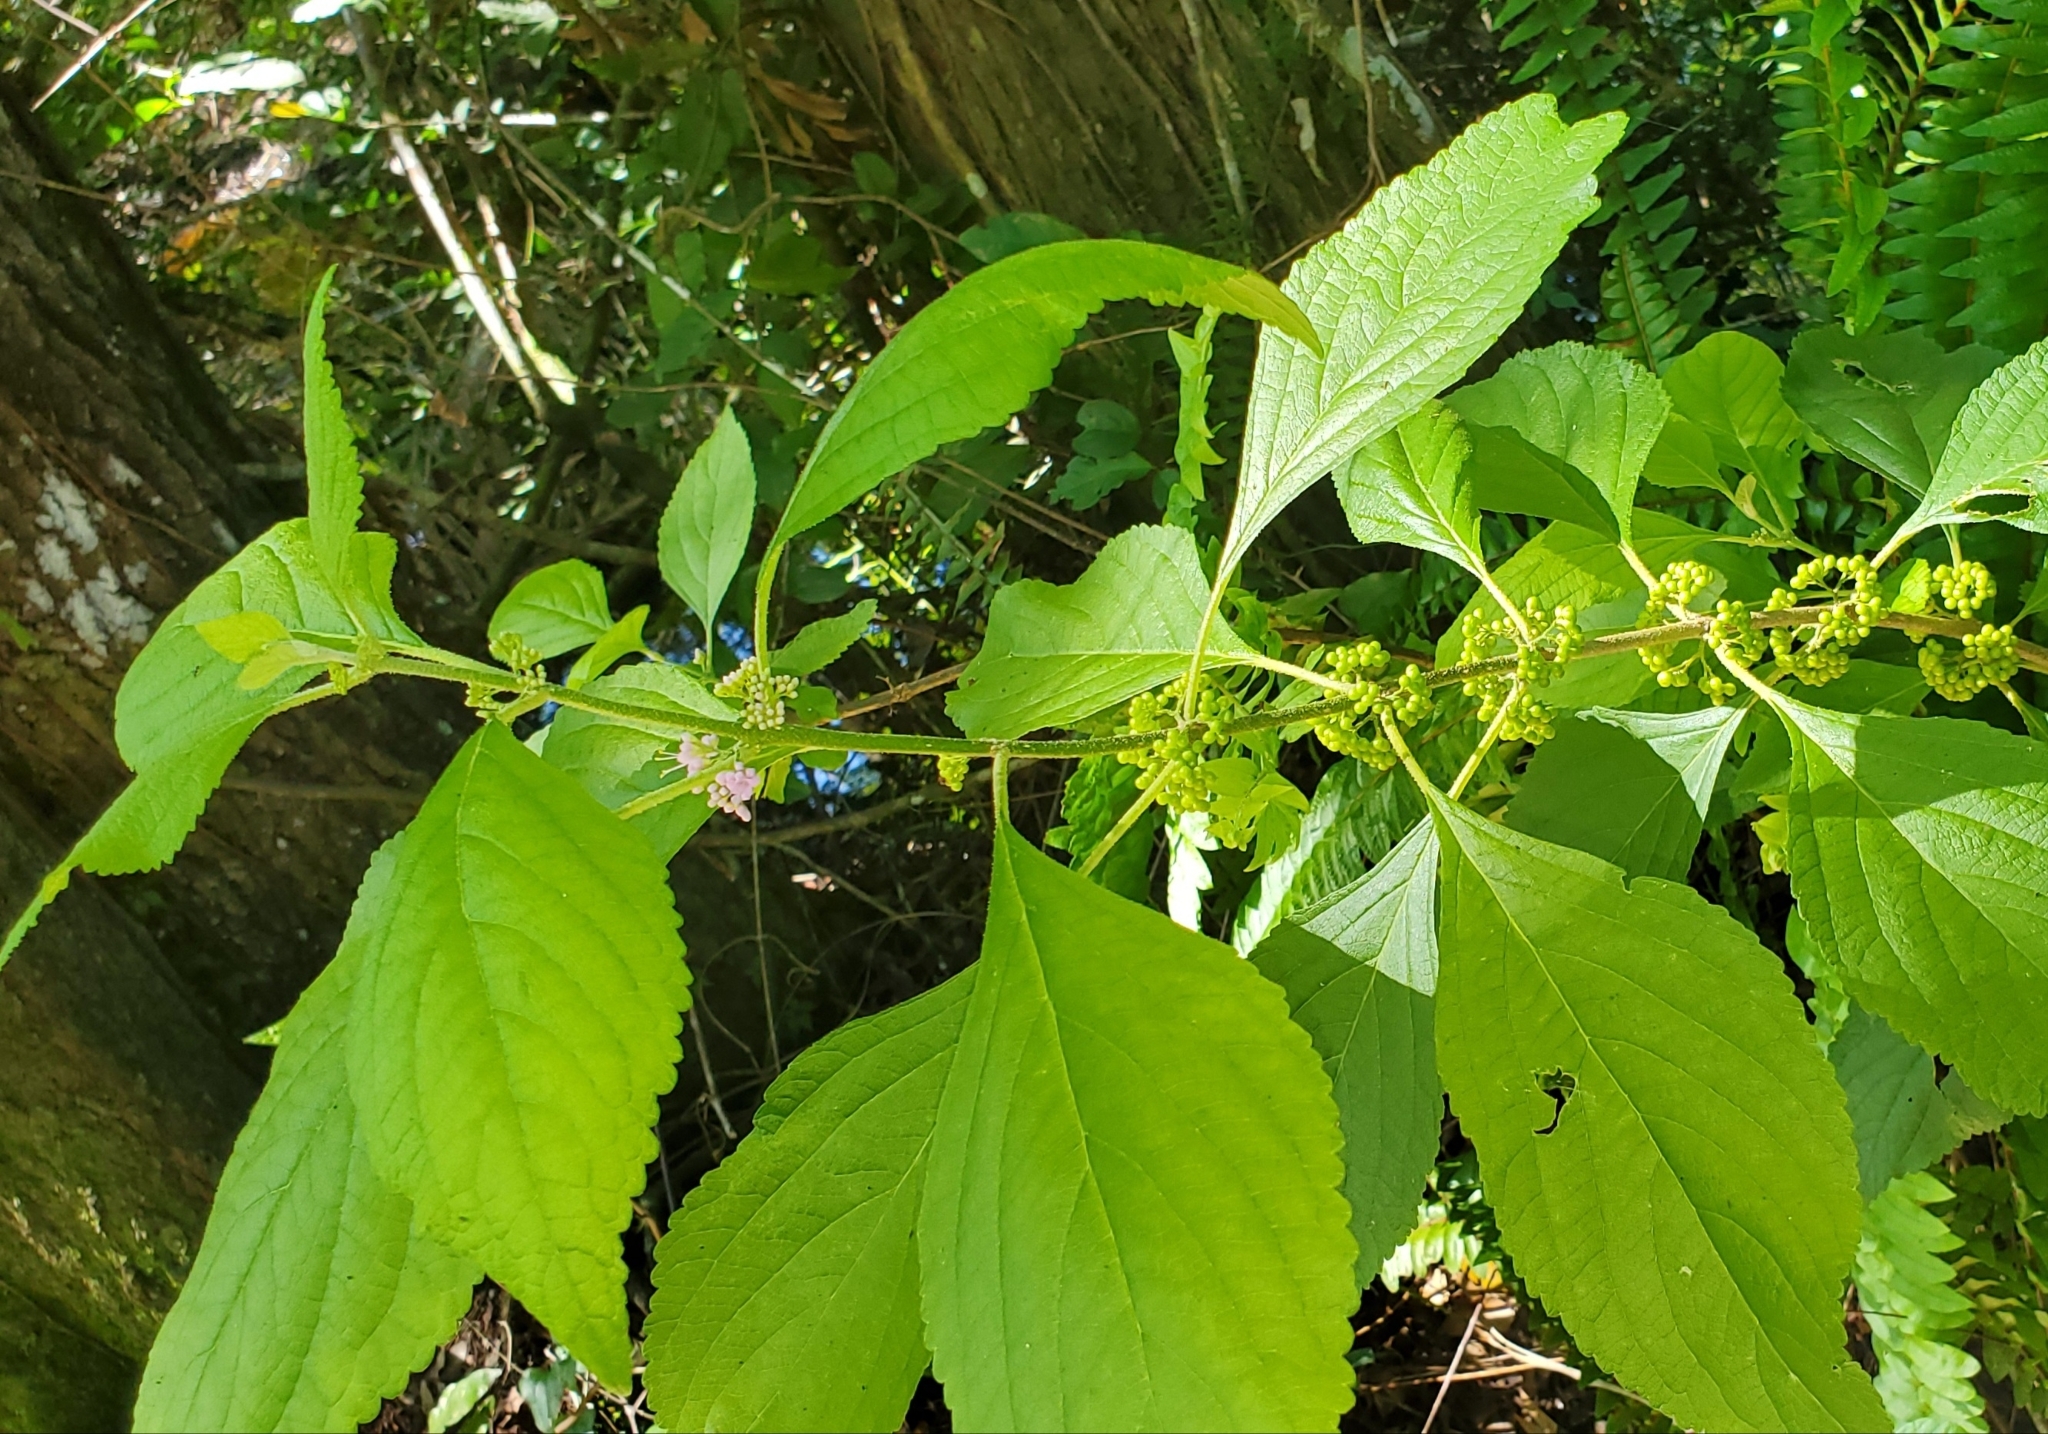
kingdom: Plantae
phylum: Tracheophyta
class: Magnoliopsida
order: Lamiales
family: Lamiaceae
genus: Callicarpa
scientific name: Callicarpa americana
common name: American beautyberry
